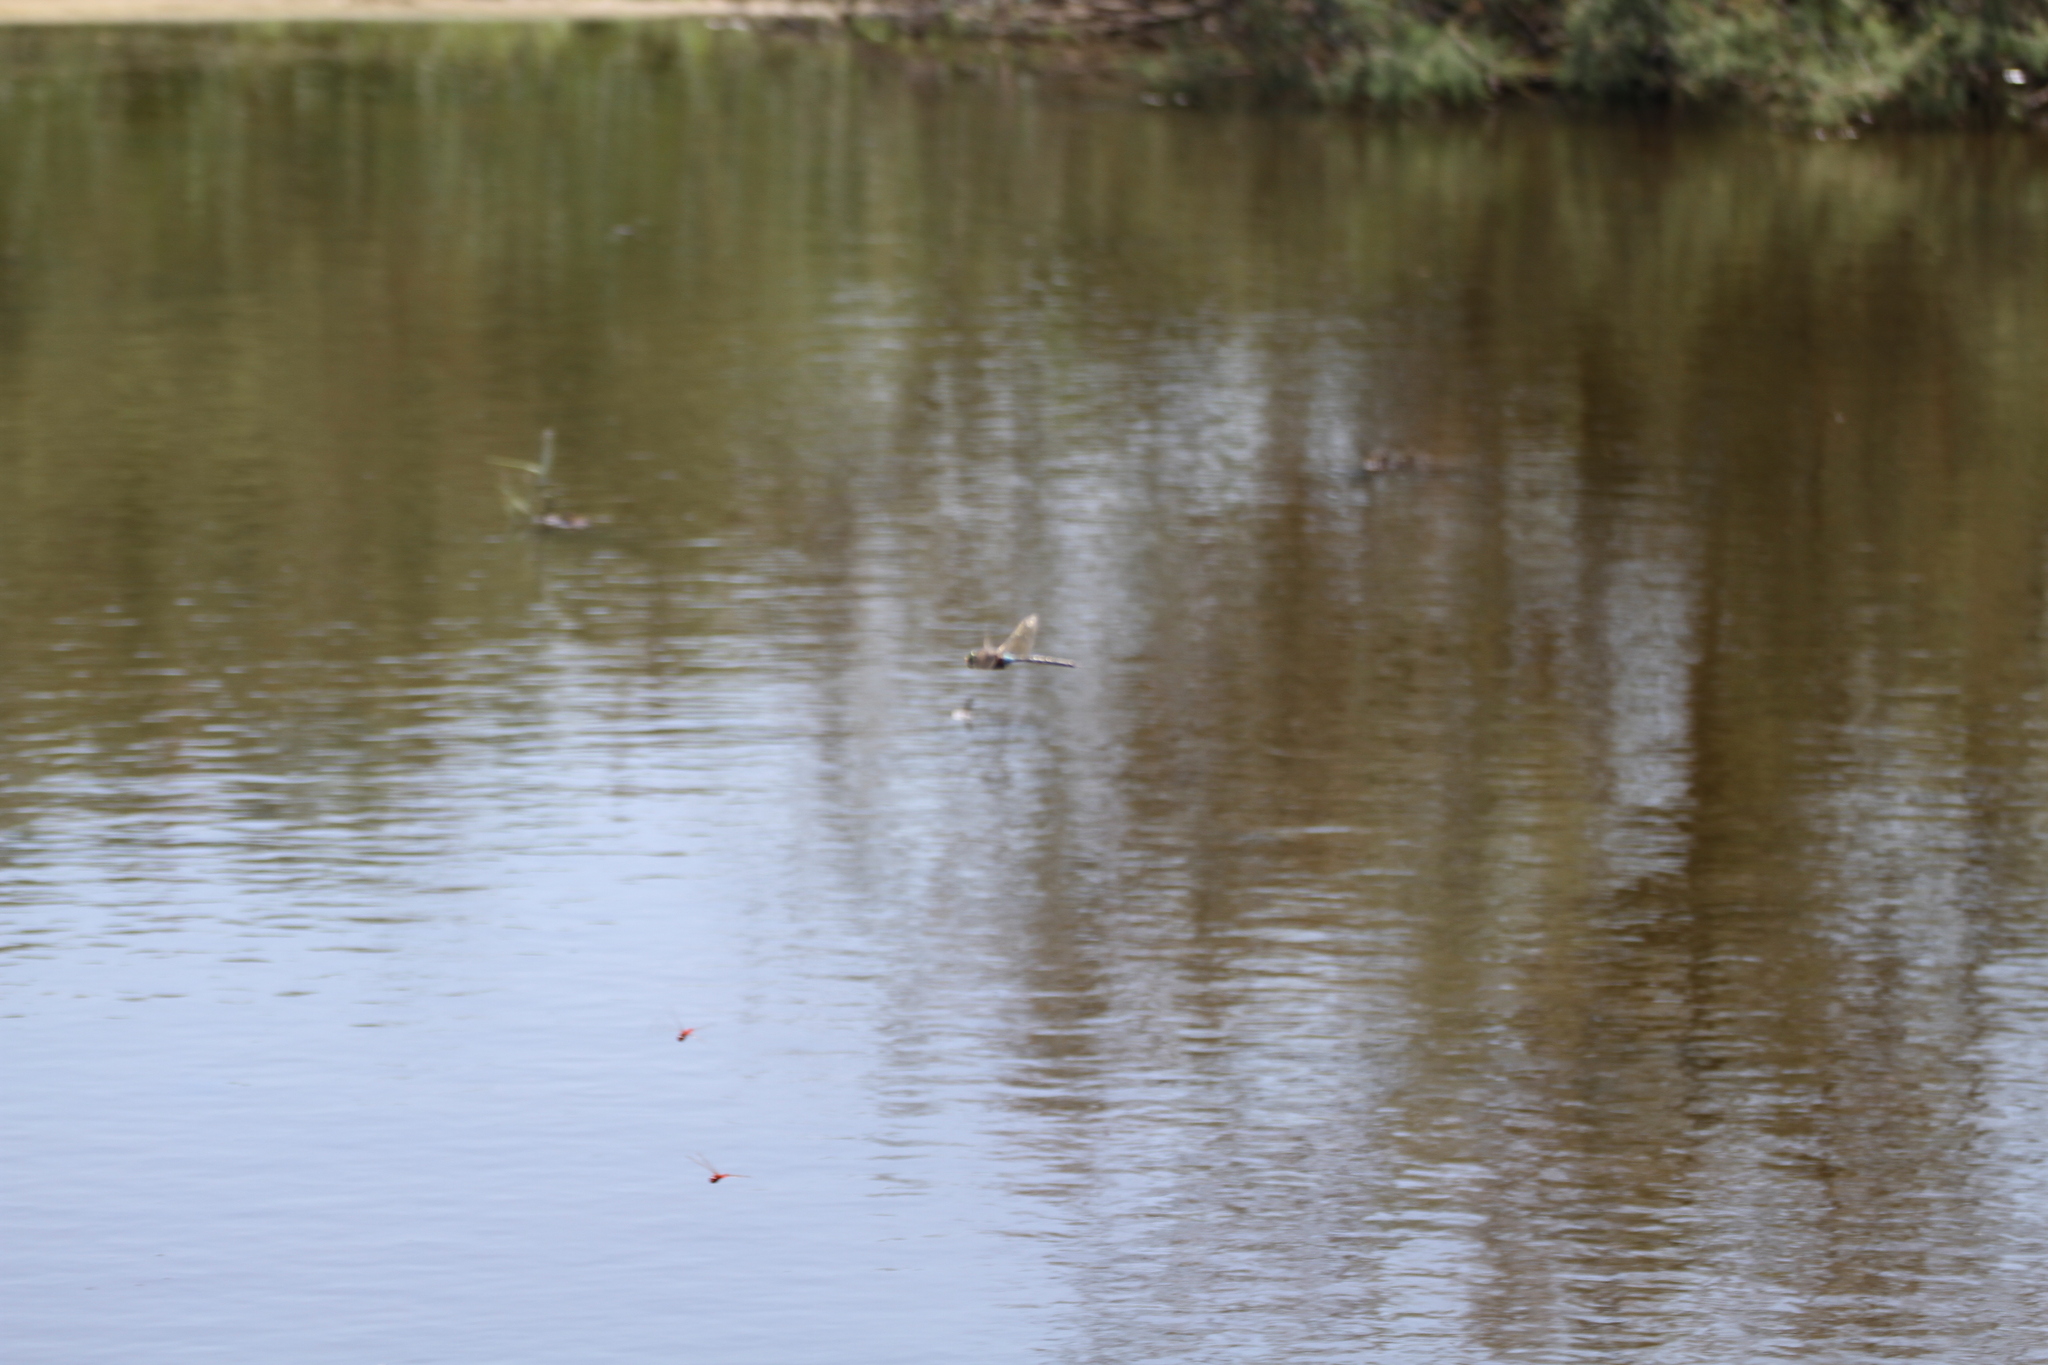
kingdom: Animalia
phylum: Arthropoda
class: Insecta
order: Odonata
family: Aeshnidae
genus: Anax
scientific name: Anax parthenope
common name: Lesser emperor
